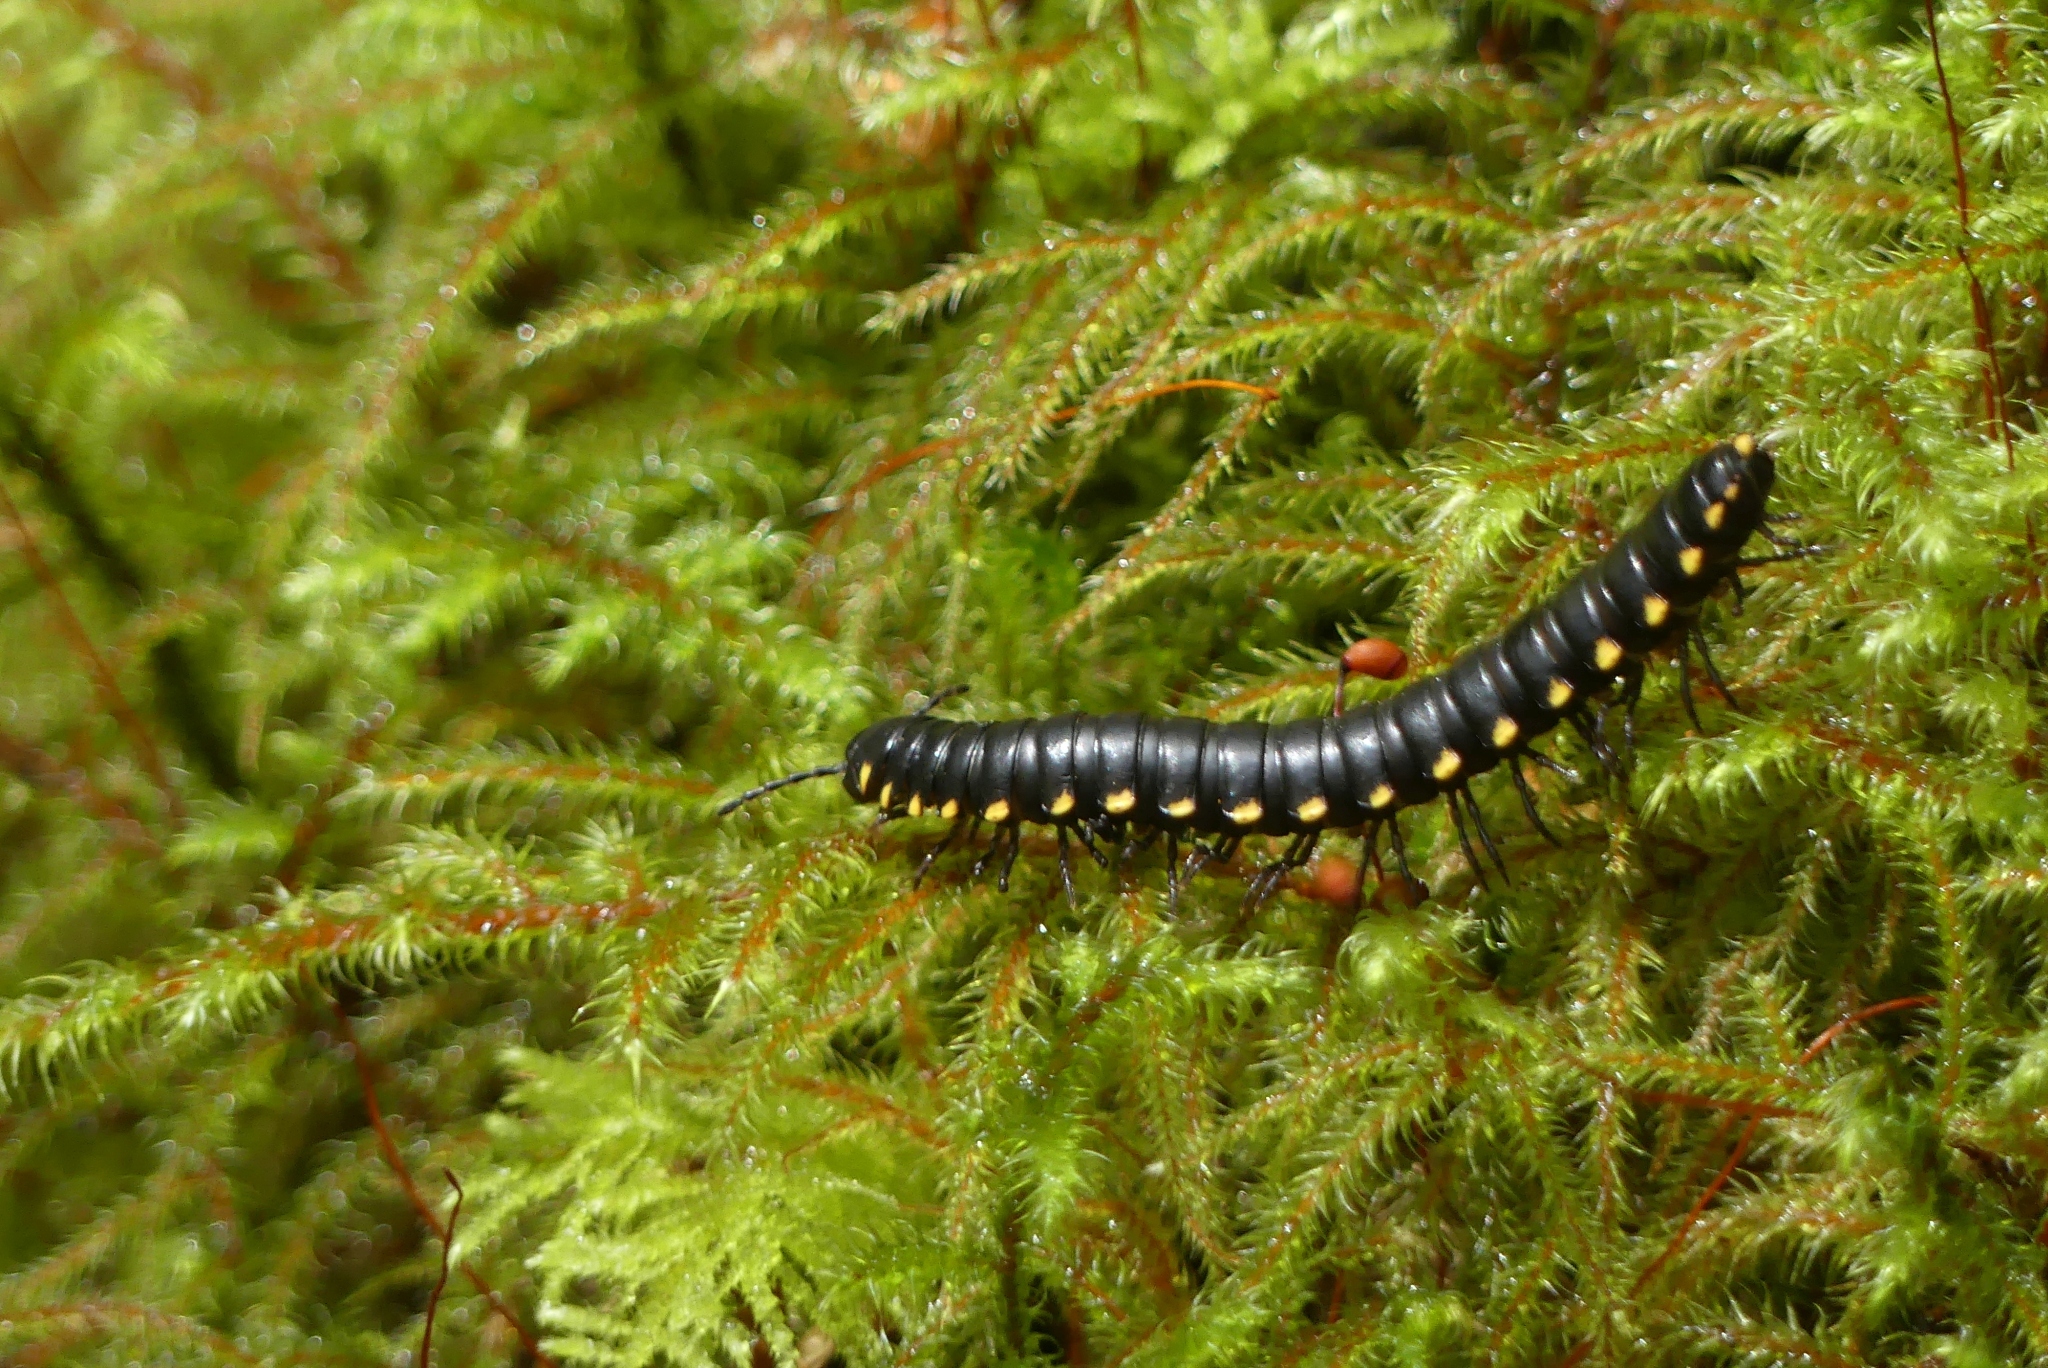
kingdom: Animalia
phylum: Arthropoda
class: Diplopoda
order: Polydesmida
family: Xystodesmidae
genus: Harpaphe
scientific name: Harpaphe haydeniana
